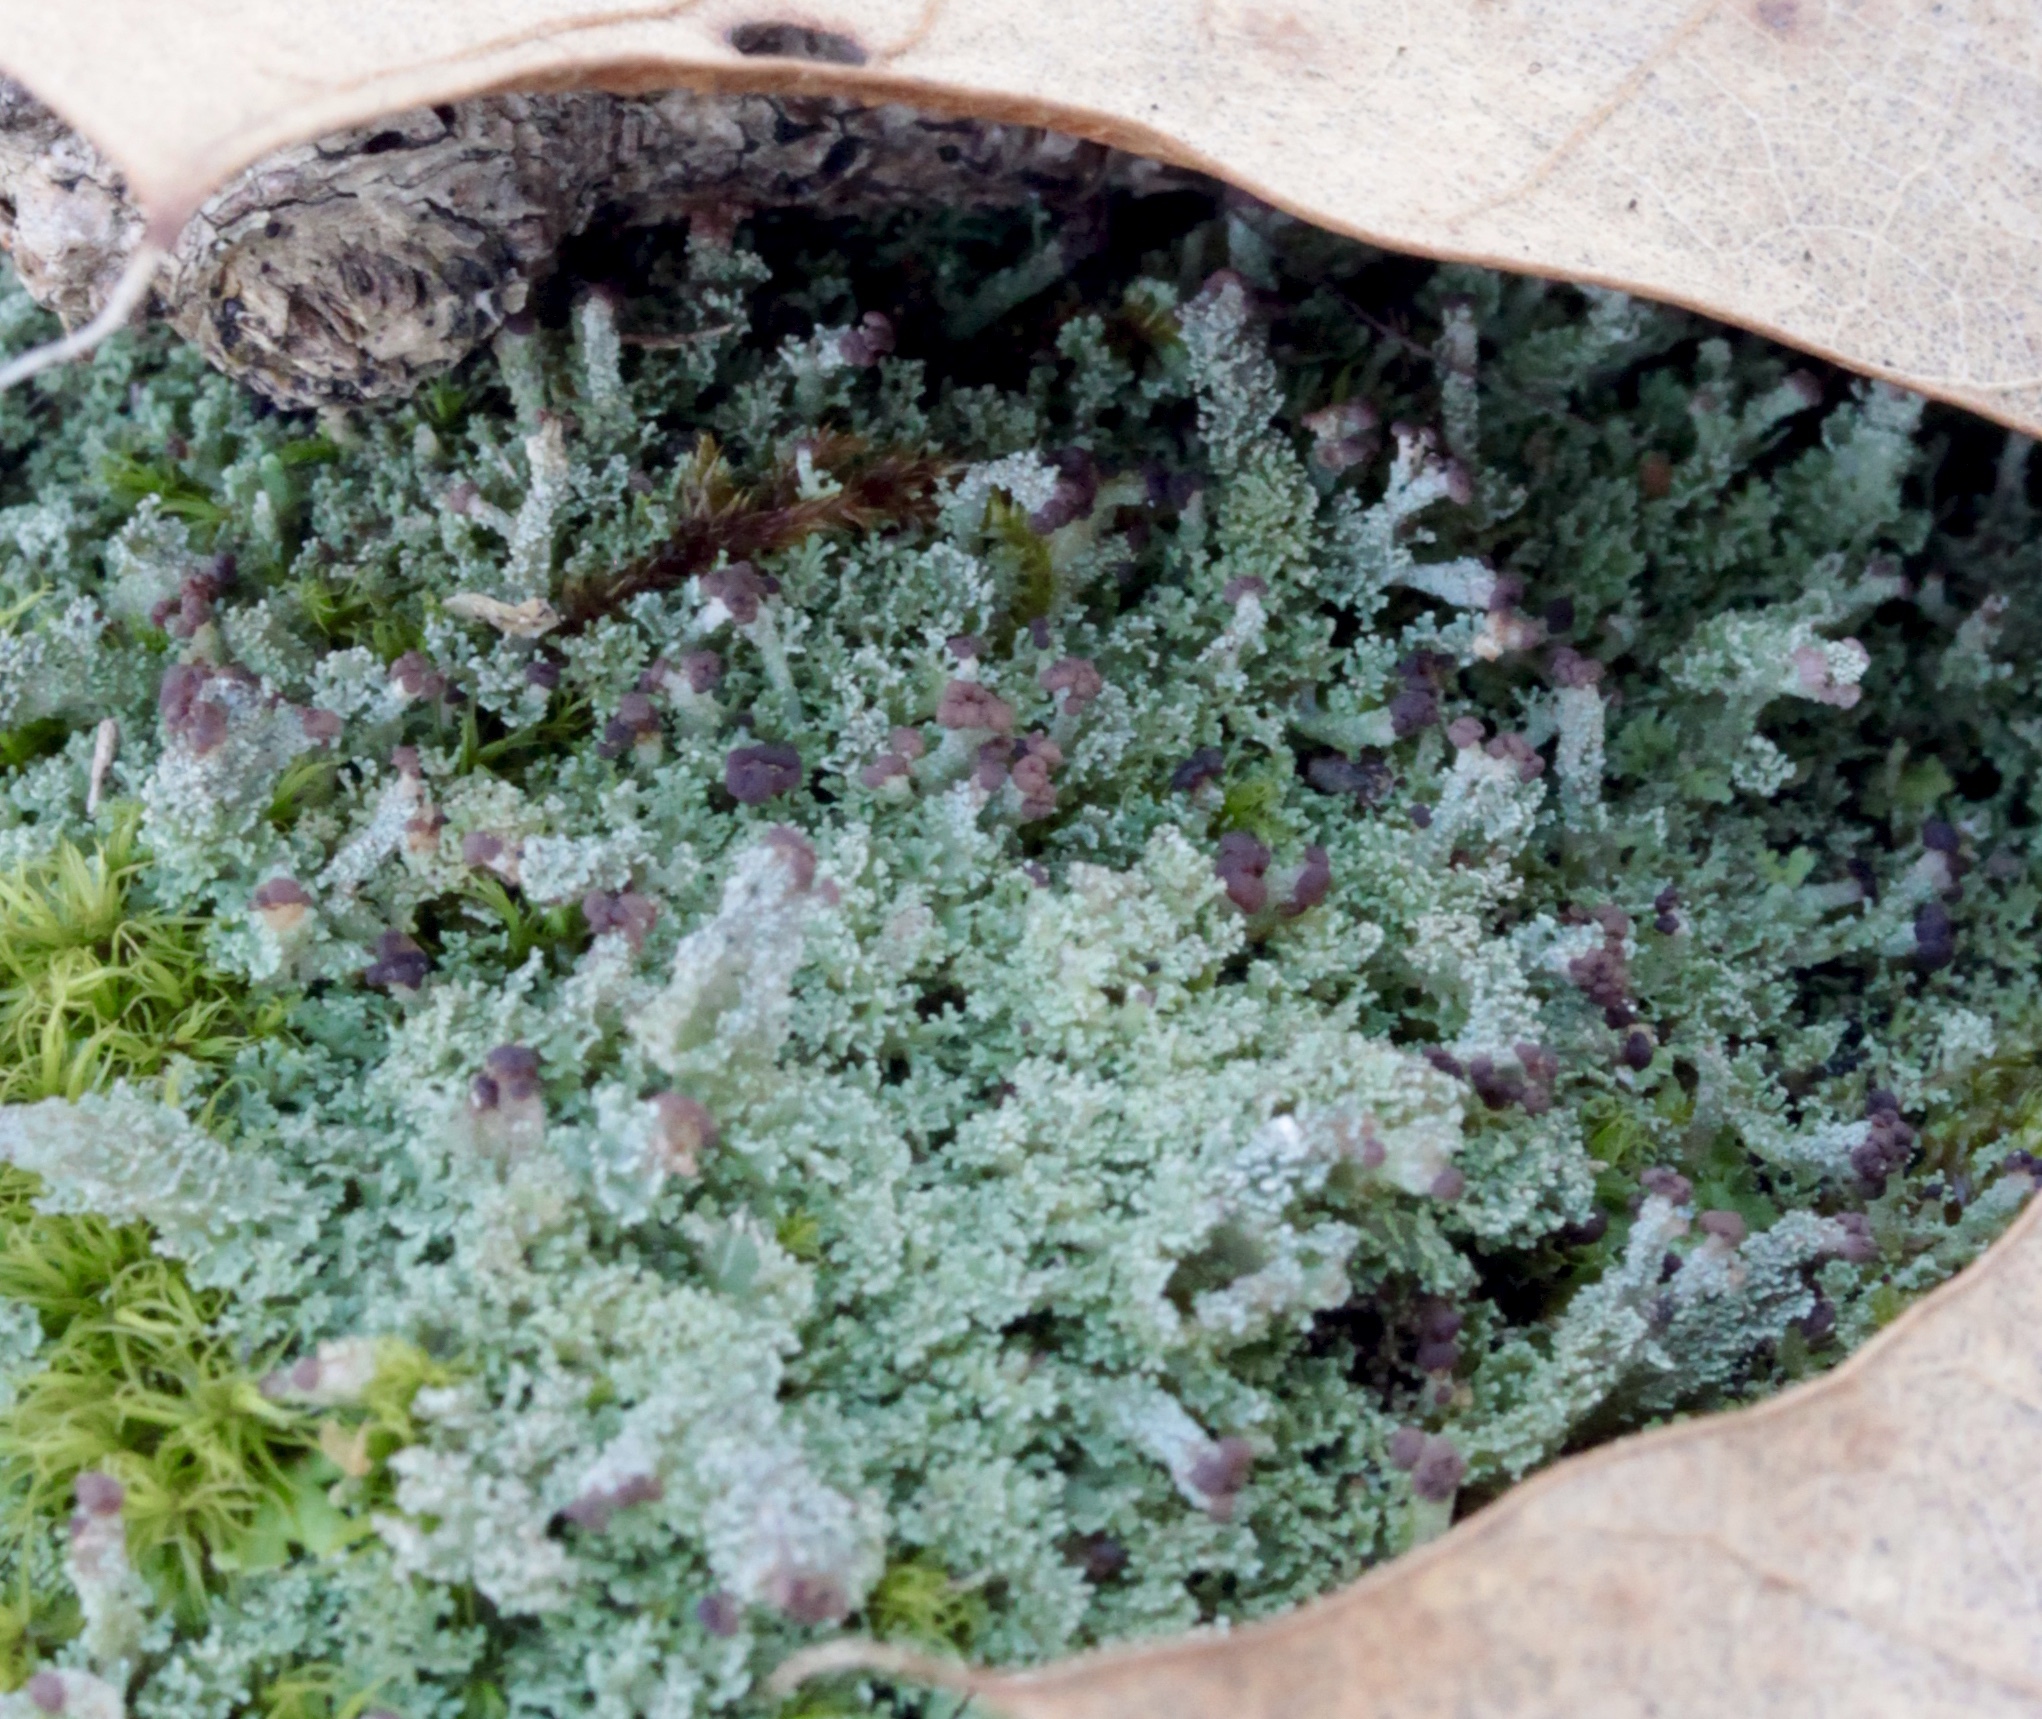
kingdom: Fungi
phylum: Ascomycota
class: Lecanoromycetes
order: Lecanorales
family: Cladoniaceae
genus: Cladonia
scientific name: Cladonia squamosa
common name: Dragon horn
